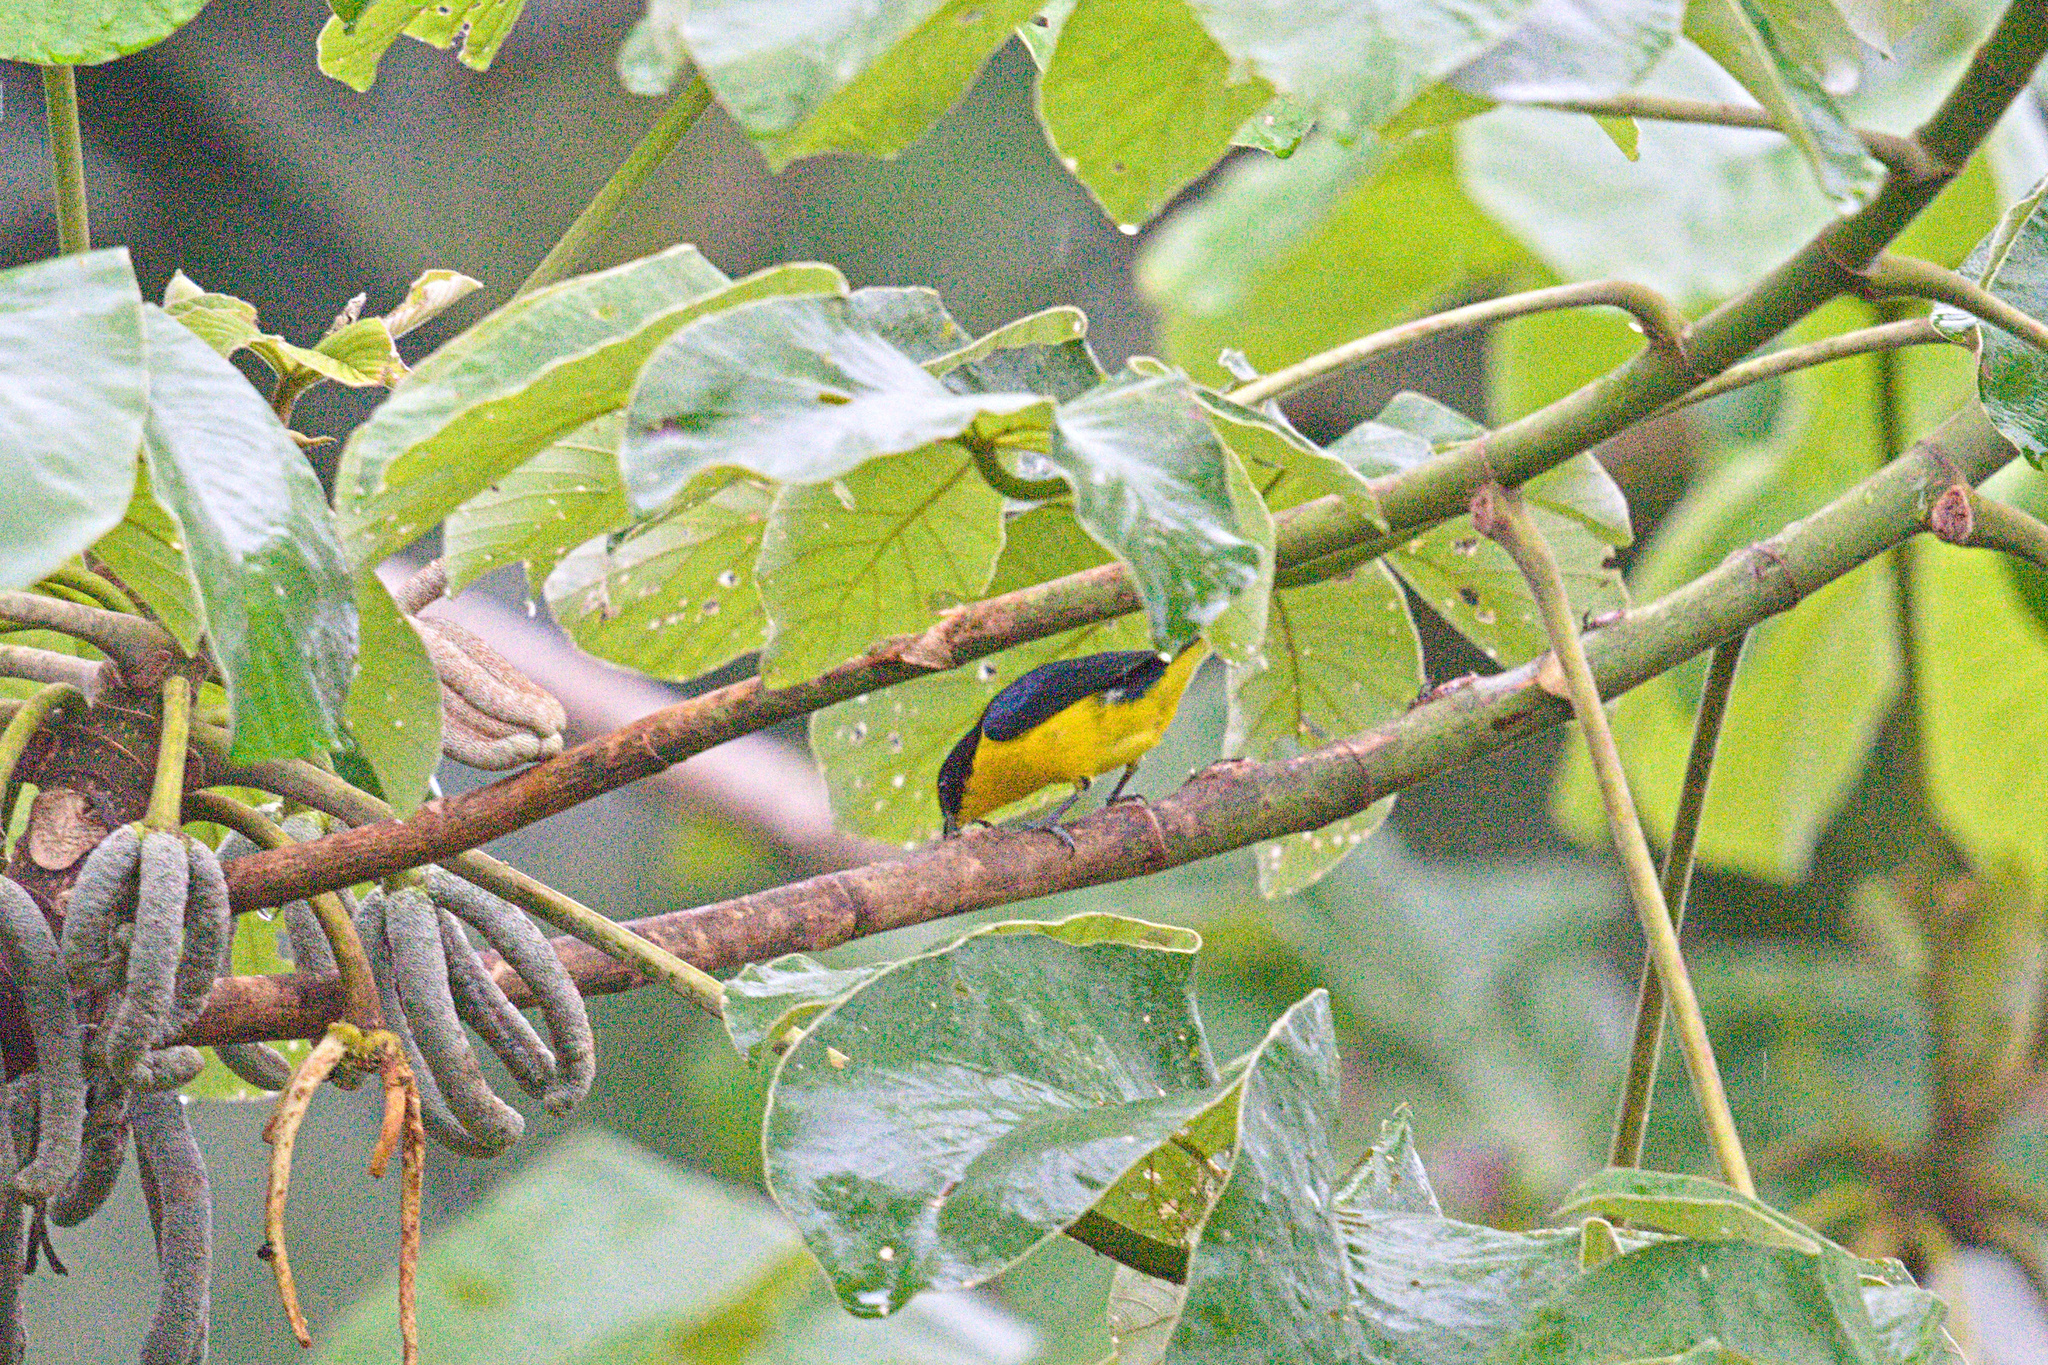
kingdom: Animalia
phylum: Chordata
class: Aves
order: Passeriformes
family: Fringillidae
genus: Euphonia
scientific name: Euphonia hirundinacea
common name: Yellow-throated euphonia
